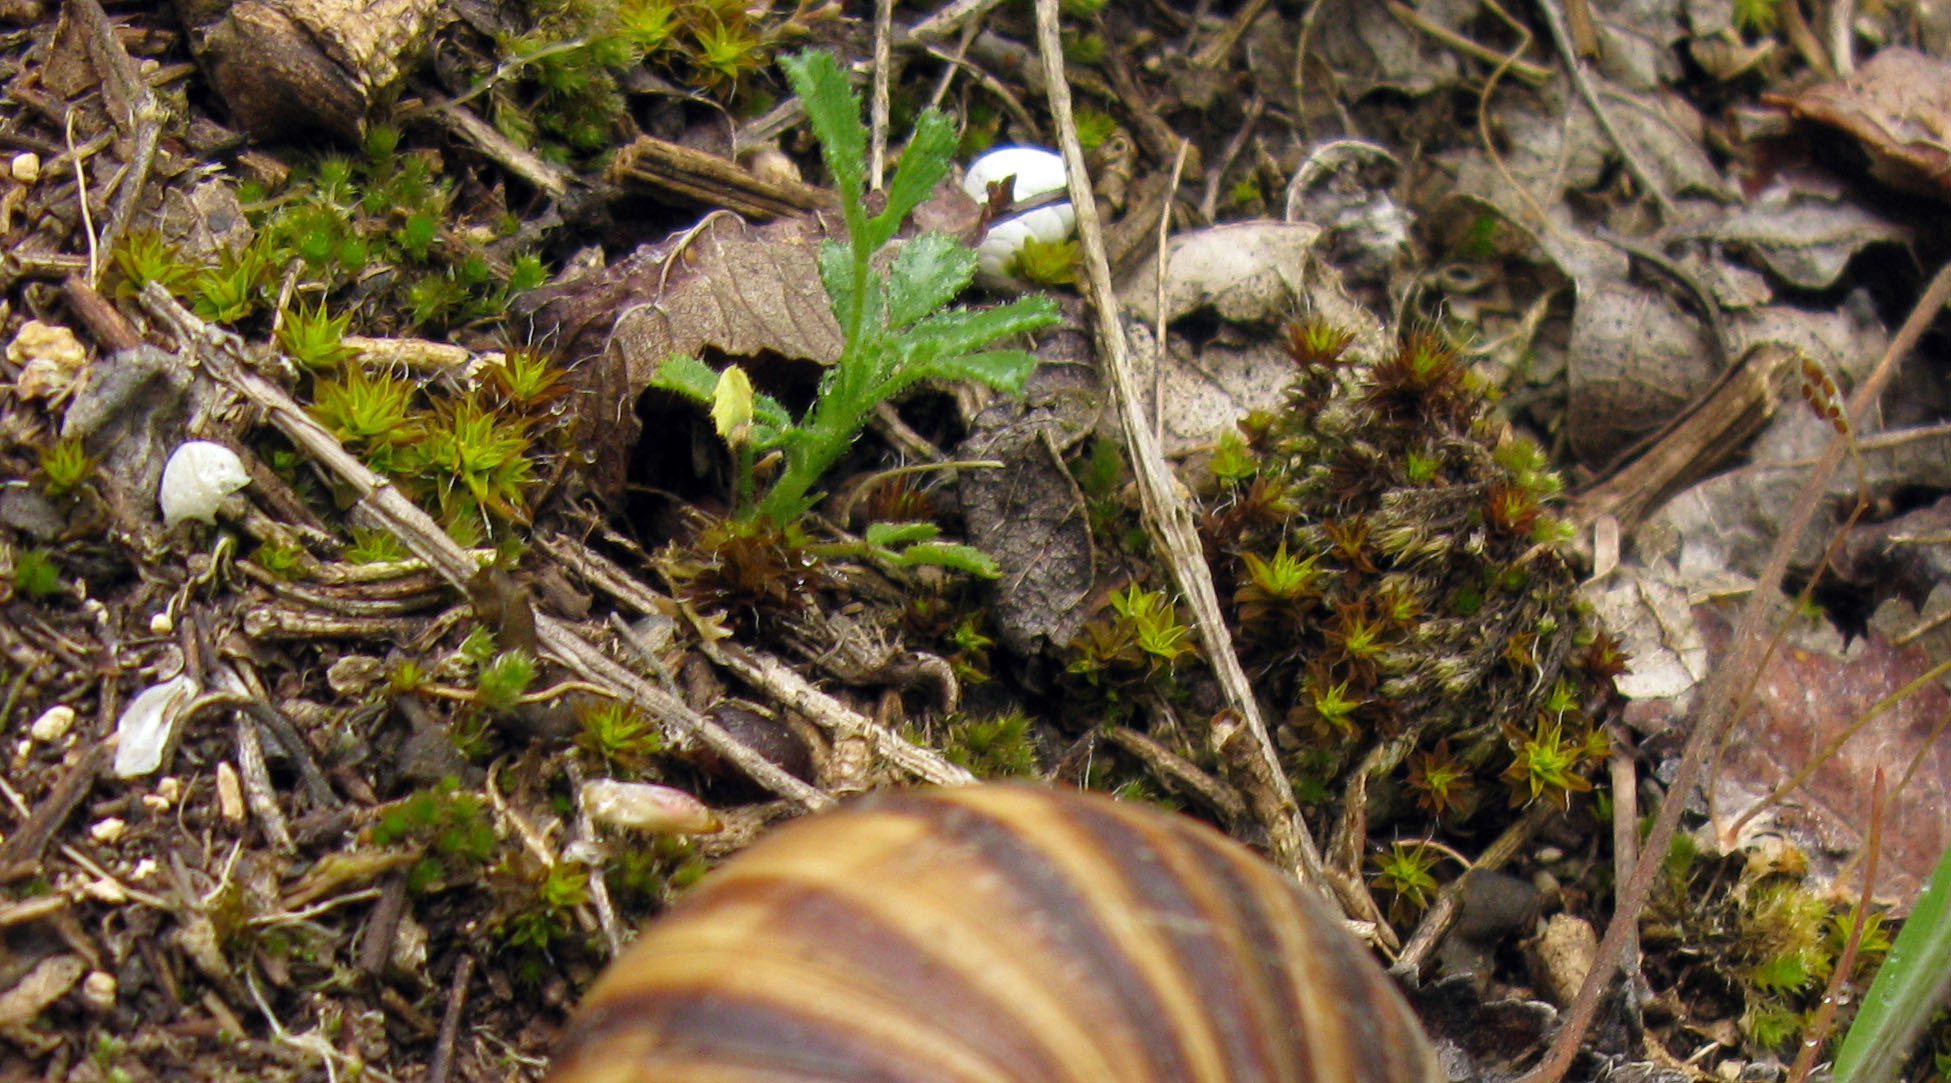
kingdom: Plantae
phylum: Tracheophyta
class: Magnoliopsida
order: Fabales
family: Fabaceae
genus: Ononis
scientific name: Ononis pusilla
